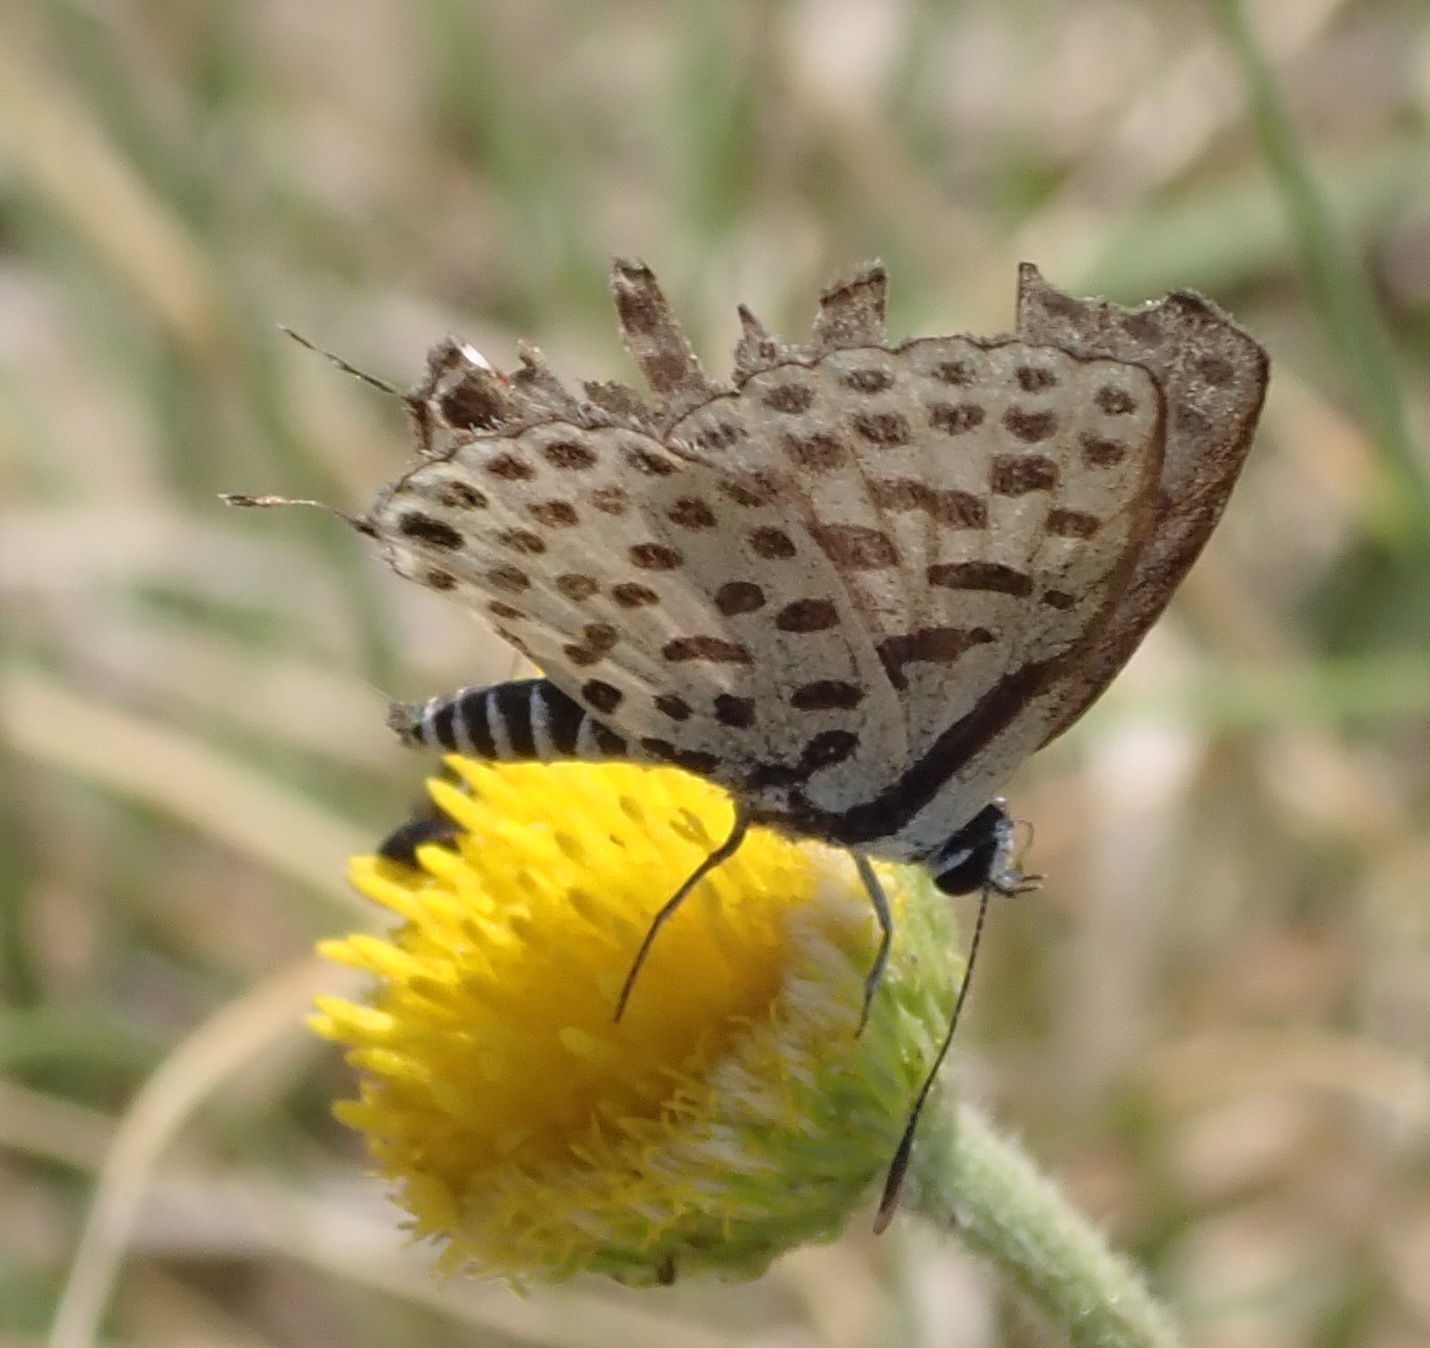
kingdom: Animalia
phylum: Arthropoda
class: Insecta
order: Lepidoptera
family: Lycaenidae
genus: Tarucus
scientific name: Tarucus sybaris
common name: Dotted blue
